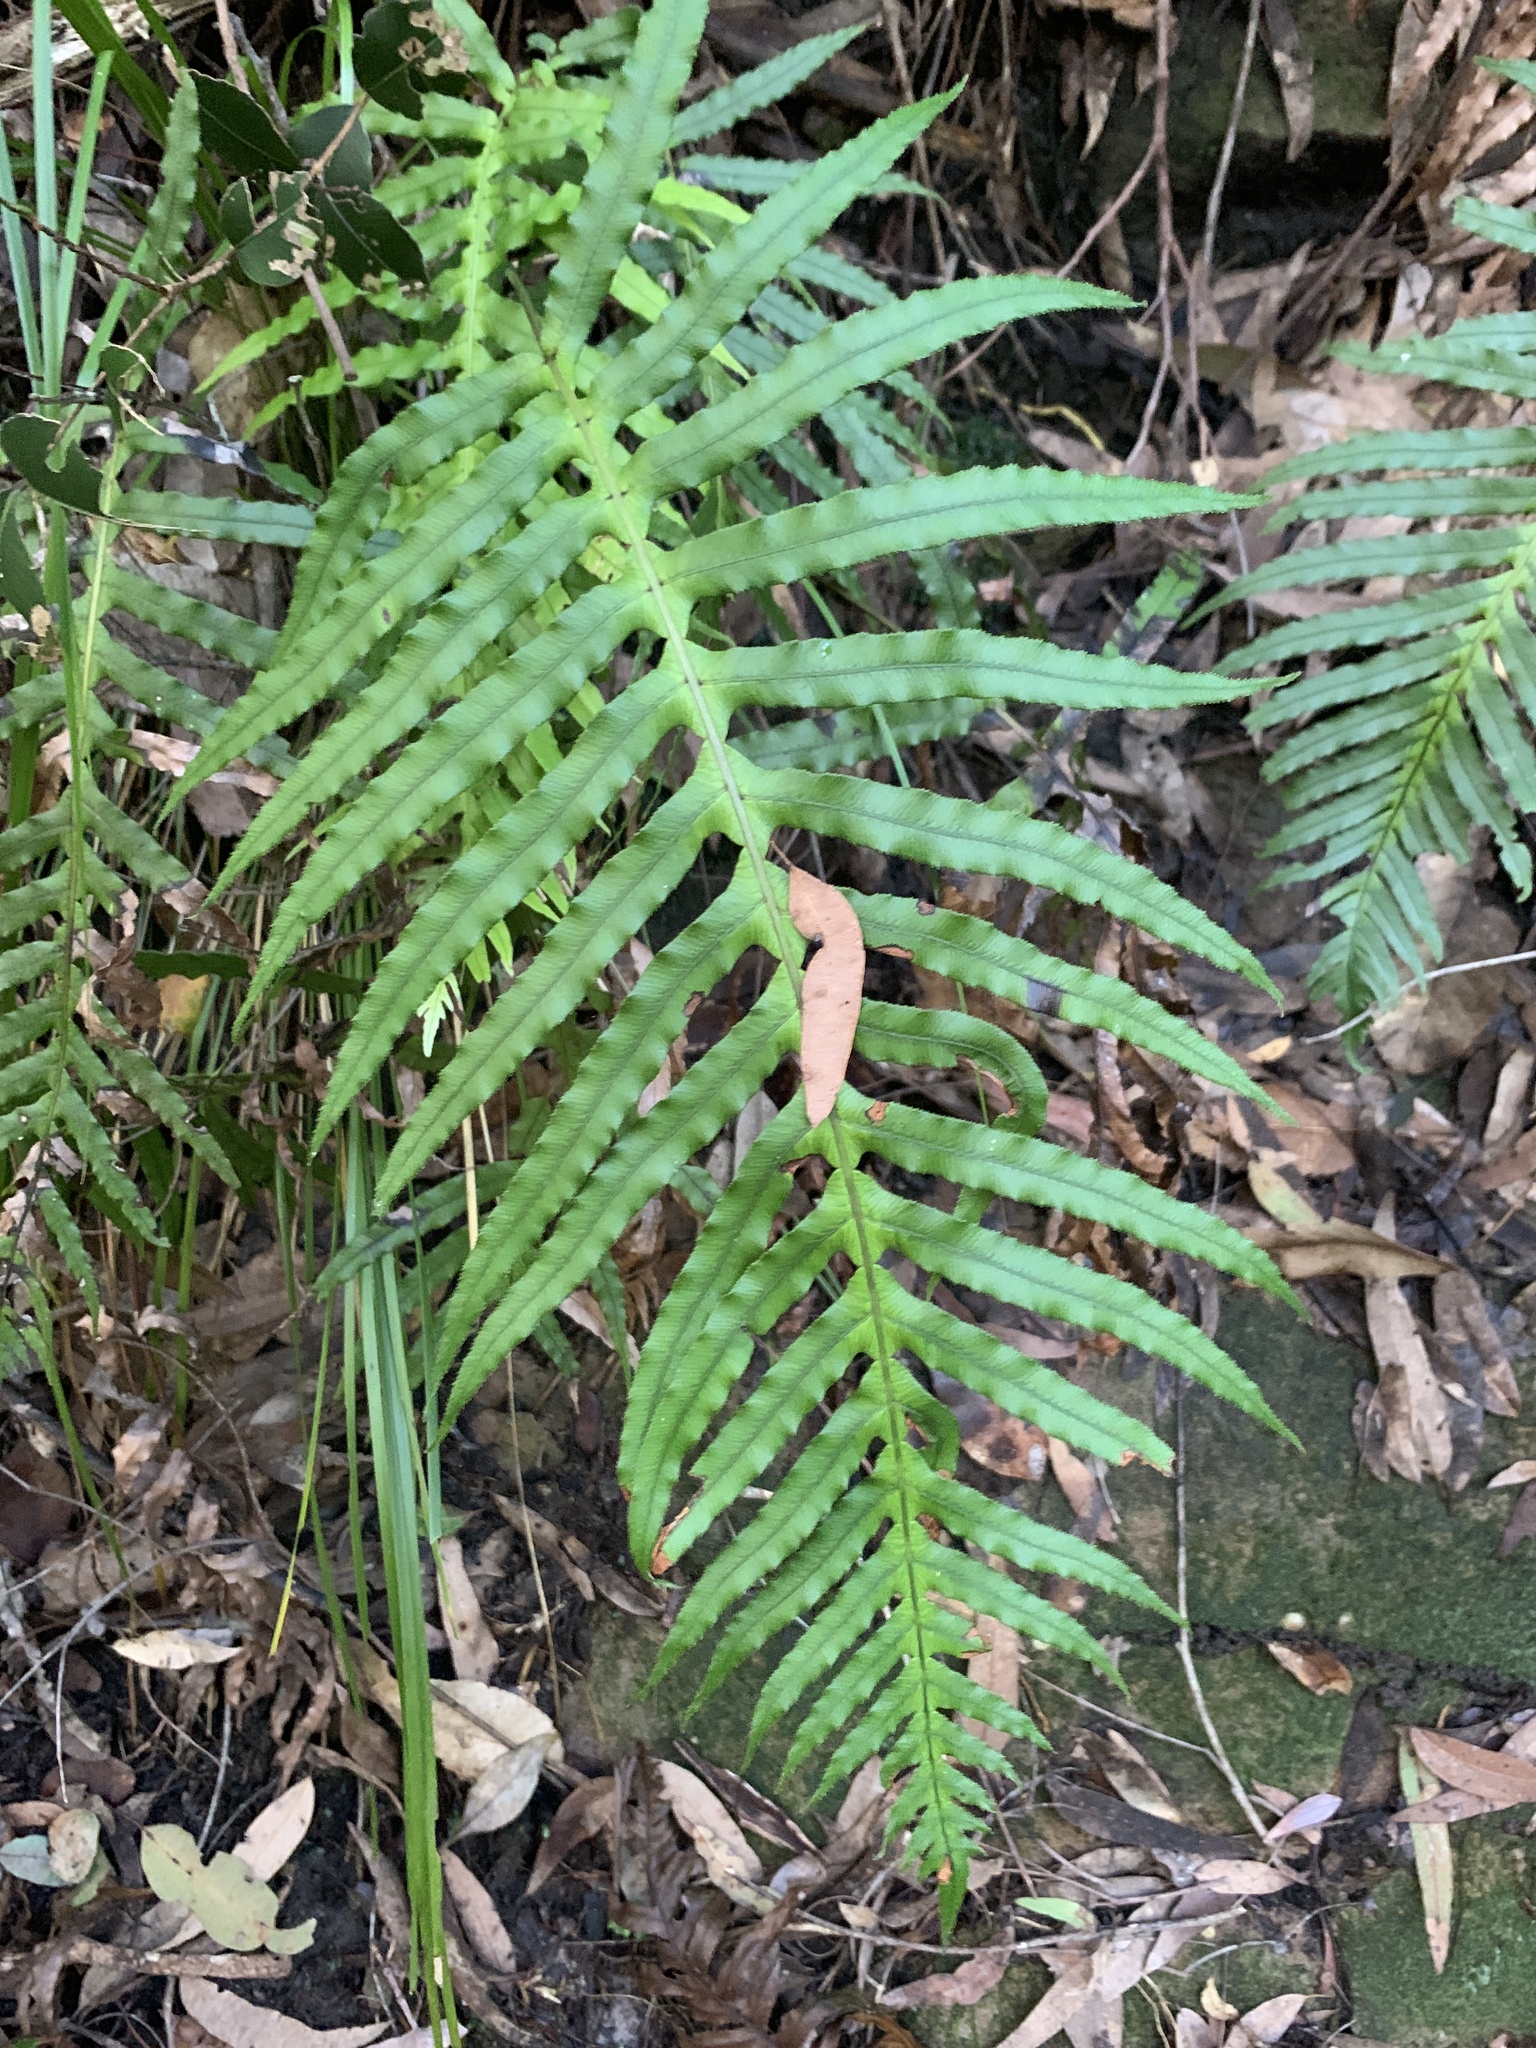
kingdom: Plantae
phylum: Tracheophyta
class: Polypodiopsida
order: Polypodiales
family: Blechnaceae
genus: Oceaniopteris
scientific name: Oceaniopteris cartilaginea
